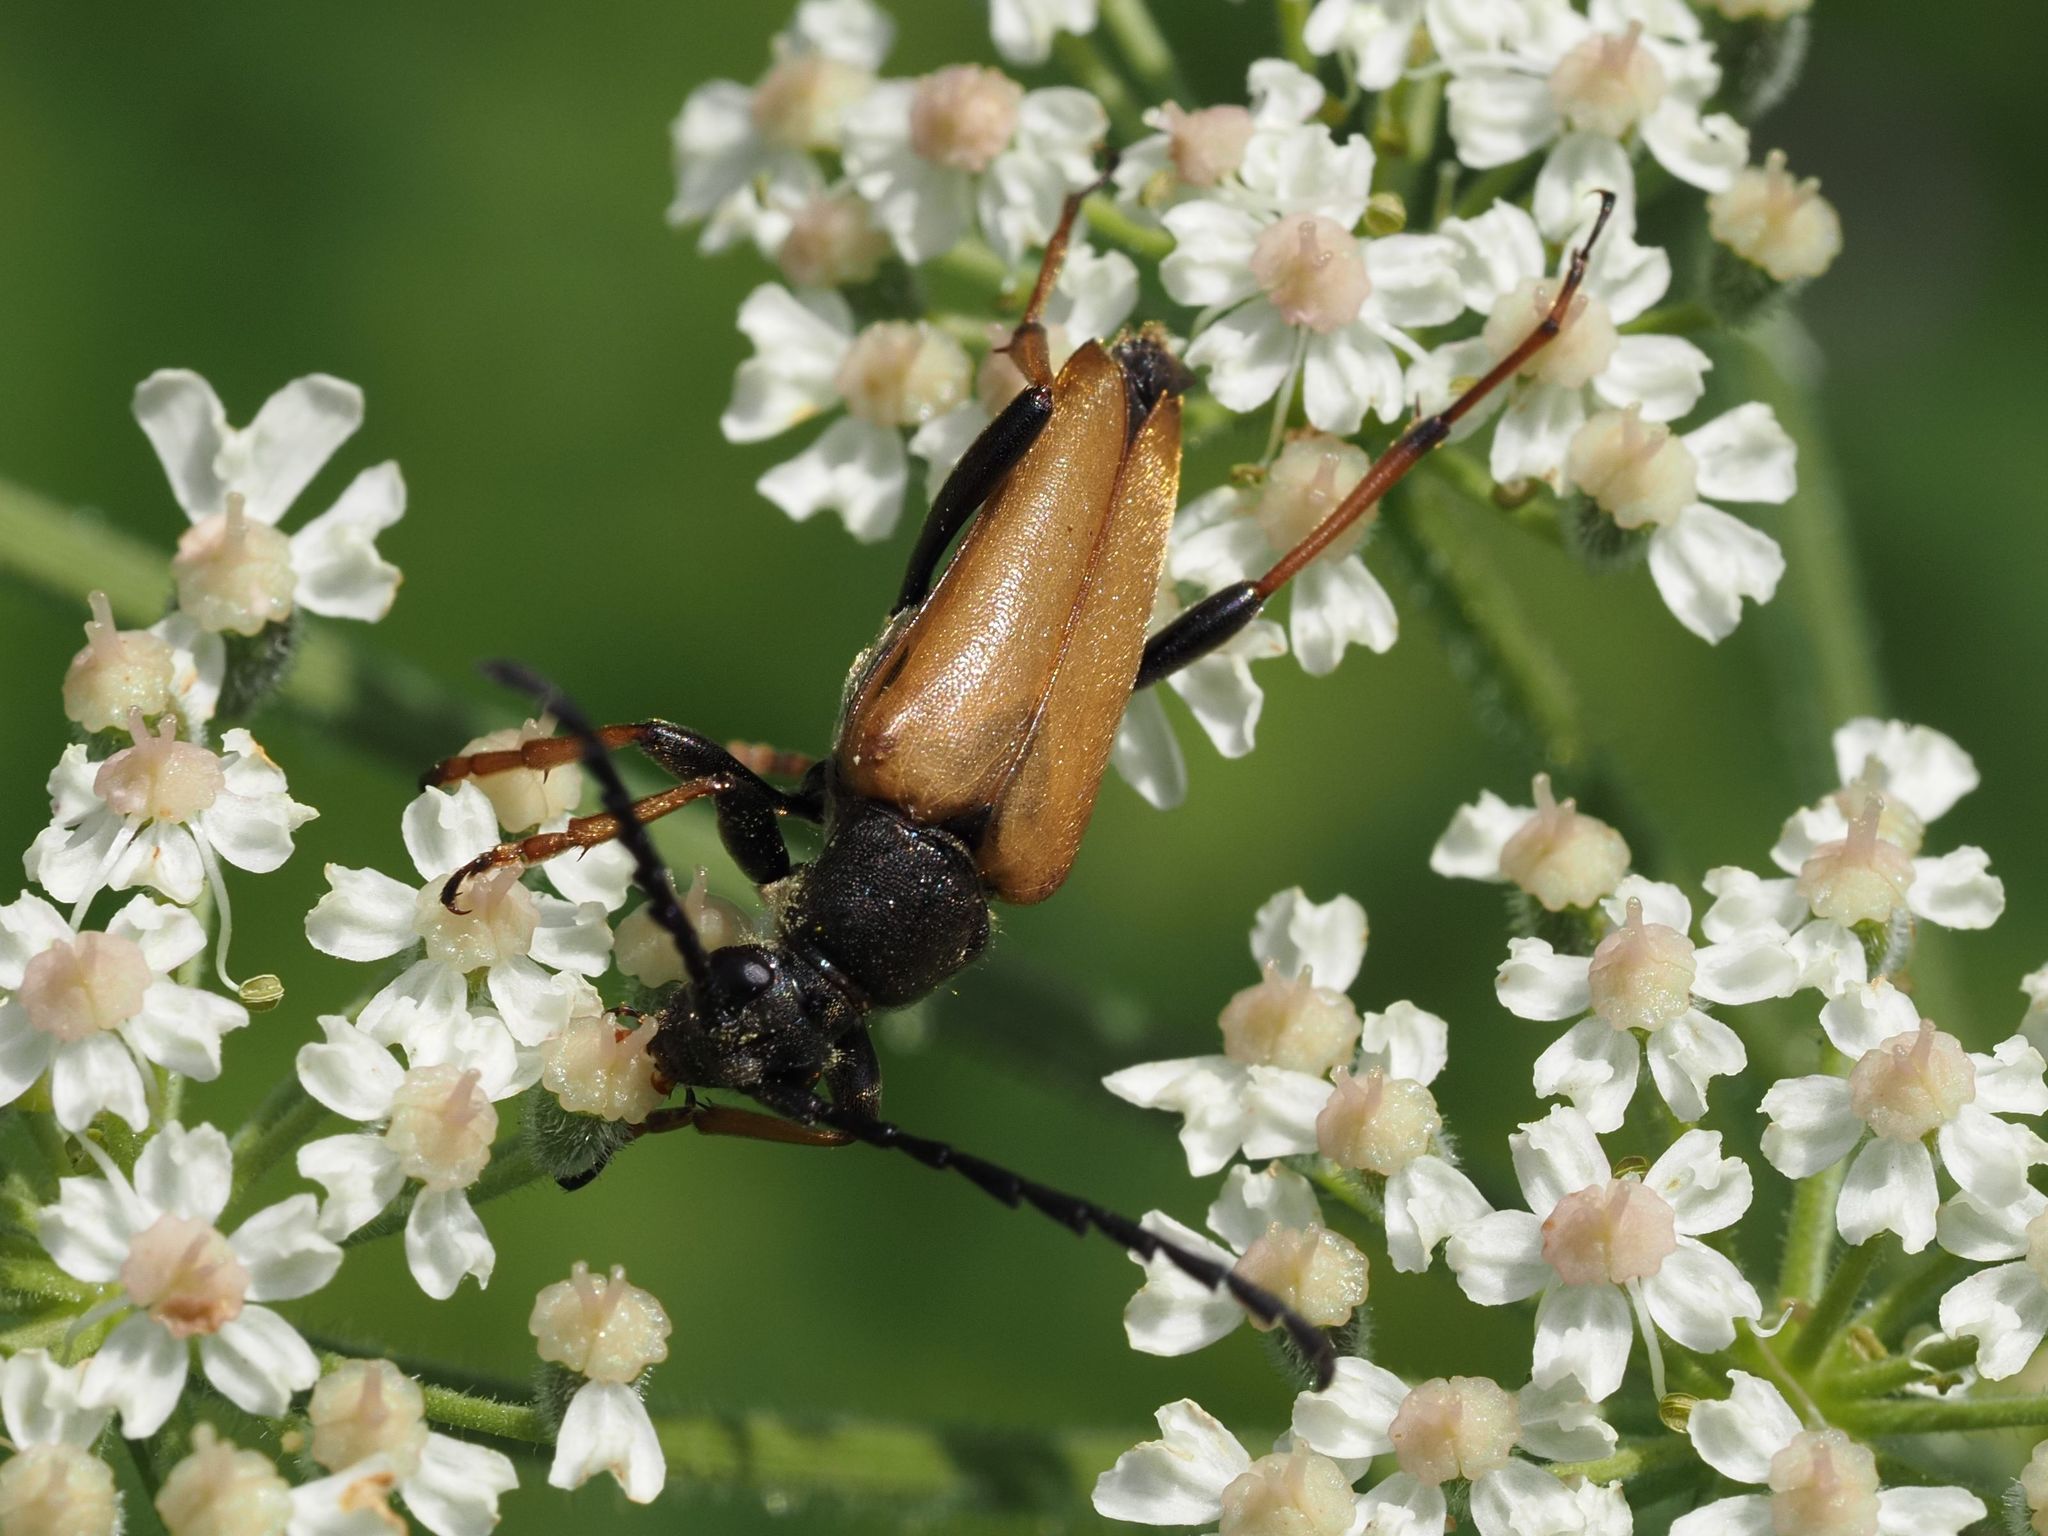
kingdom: Animalia
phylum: Arthropoda
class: Insecta
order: Coleoptera
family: Cerambycidae
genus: Stictoleptura
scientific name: Stictoleptura rubra
